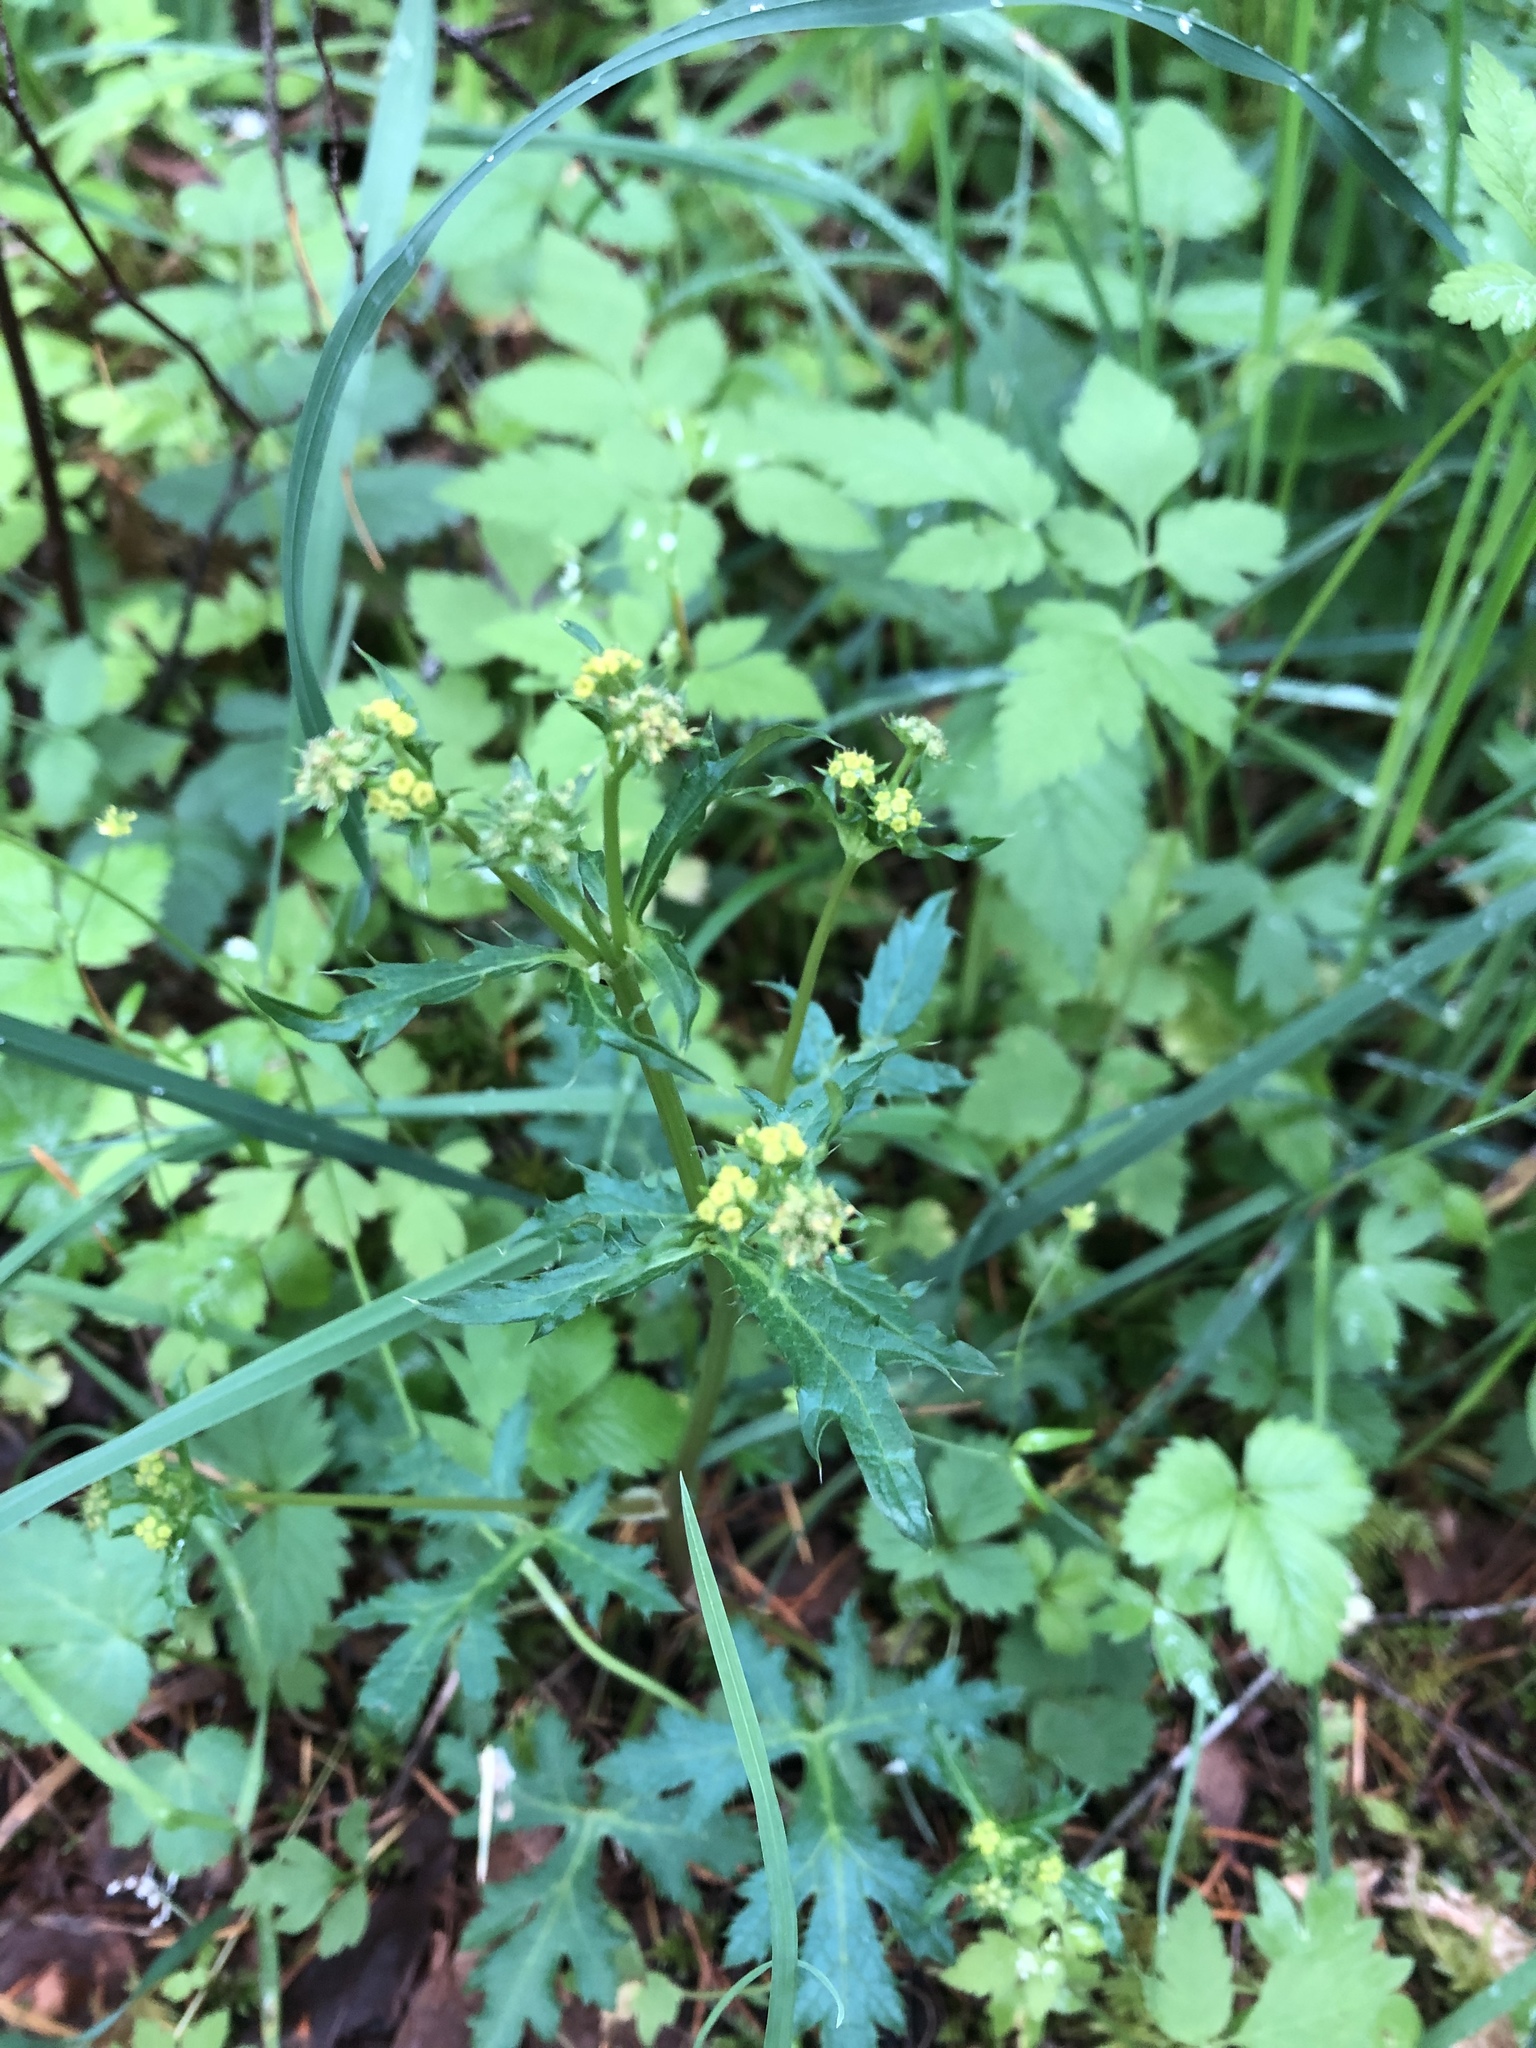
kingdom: Plantae
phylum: Tracheophyta
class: Magnoliopsida
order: Apiales
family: Apiaceae
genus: Sanicula
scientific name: Sanicula crassicaulis
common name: Western snakeroot
